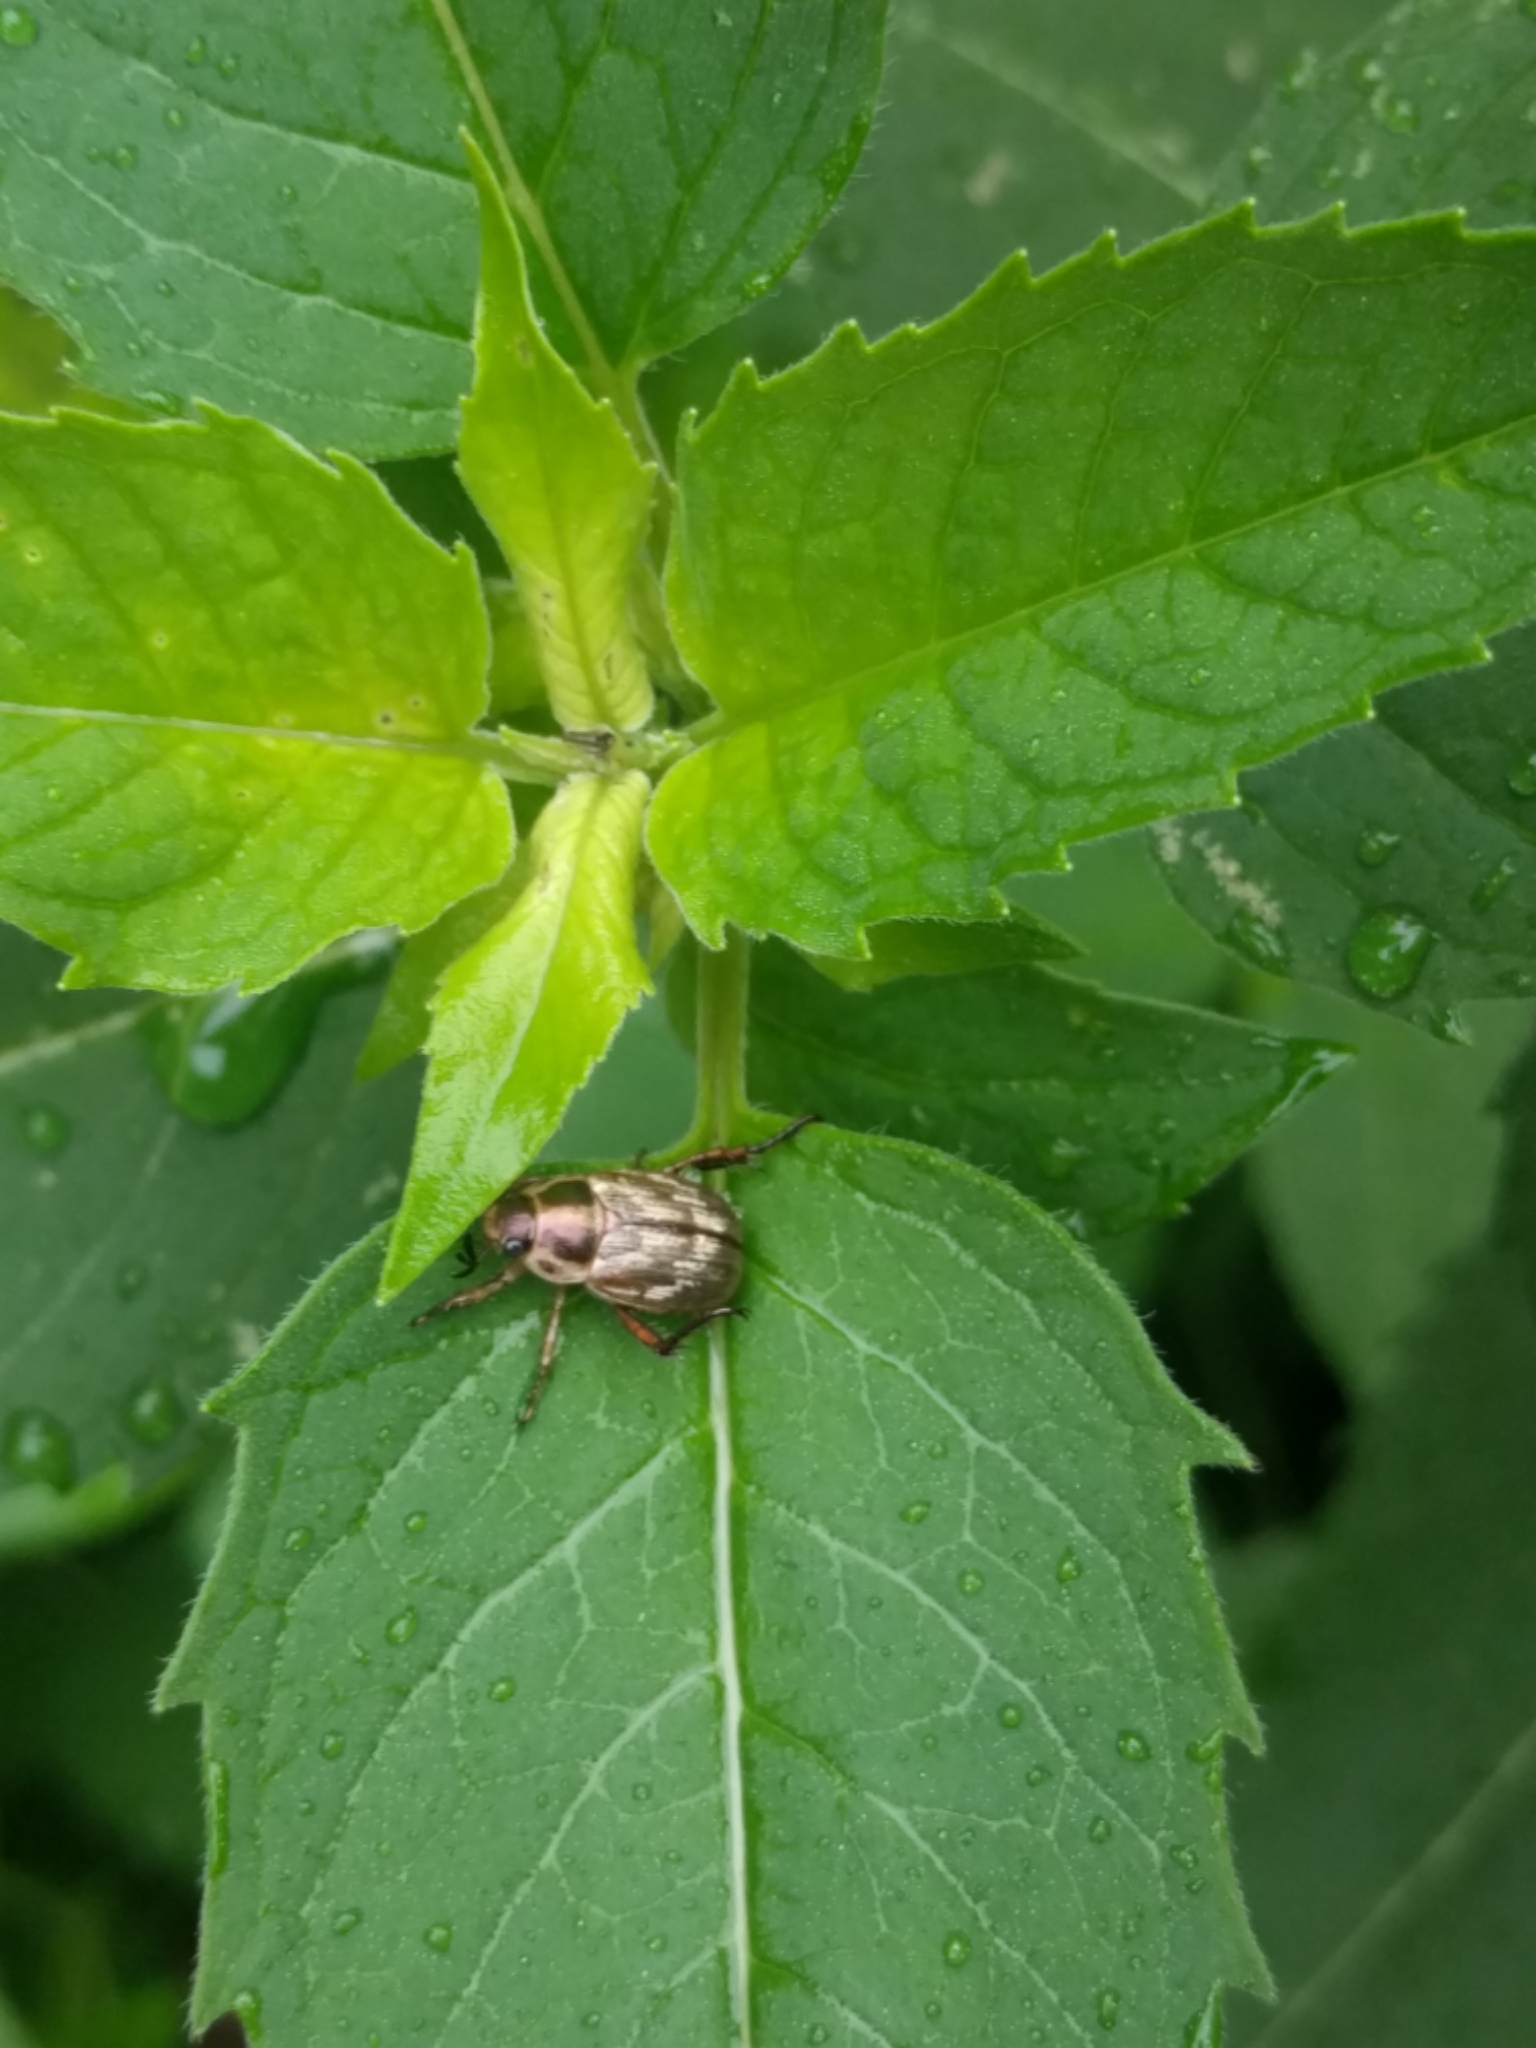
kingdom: Animalia
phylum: Arthropoda
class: Insecta
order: Coleoptera
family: Scarabaeidae
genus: Exomala
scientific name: Exomala orientalis
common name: Oriental beetle
